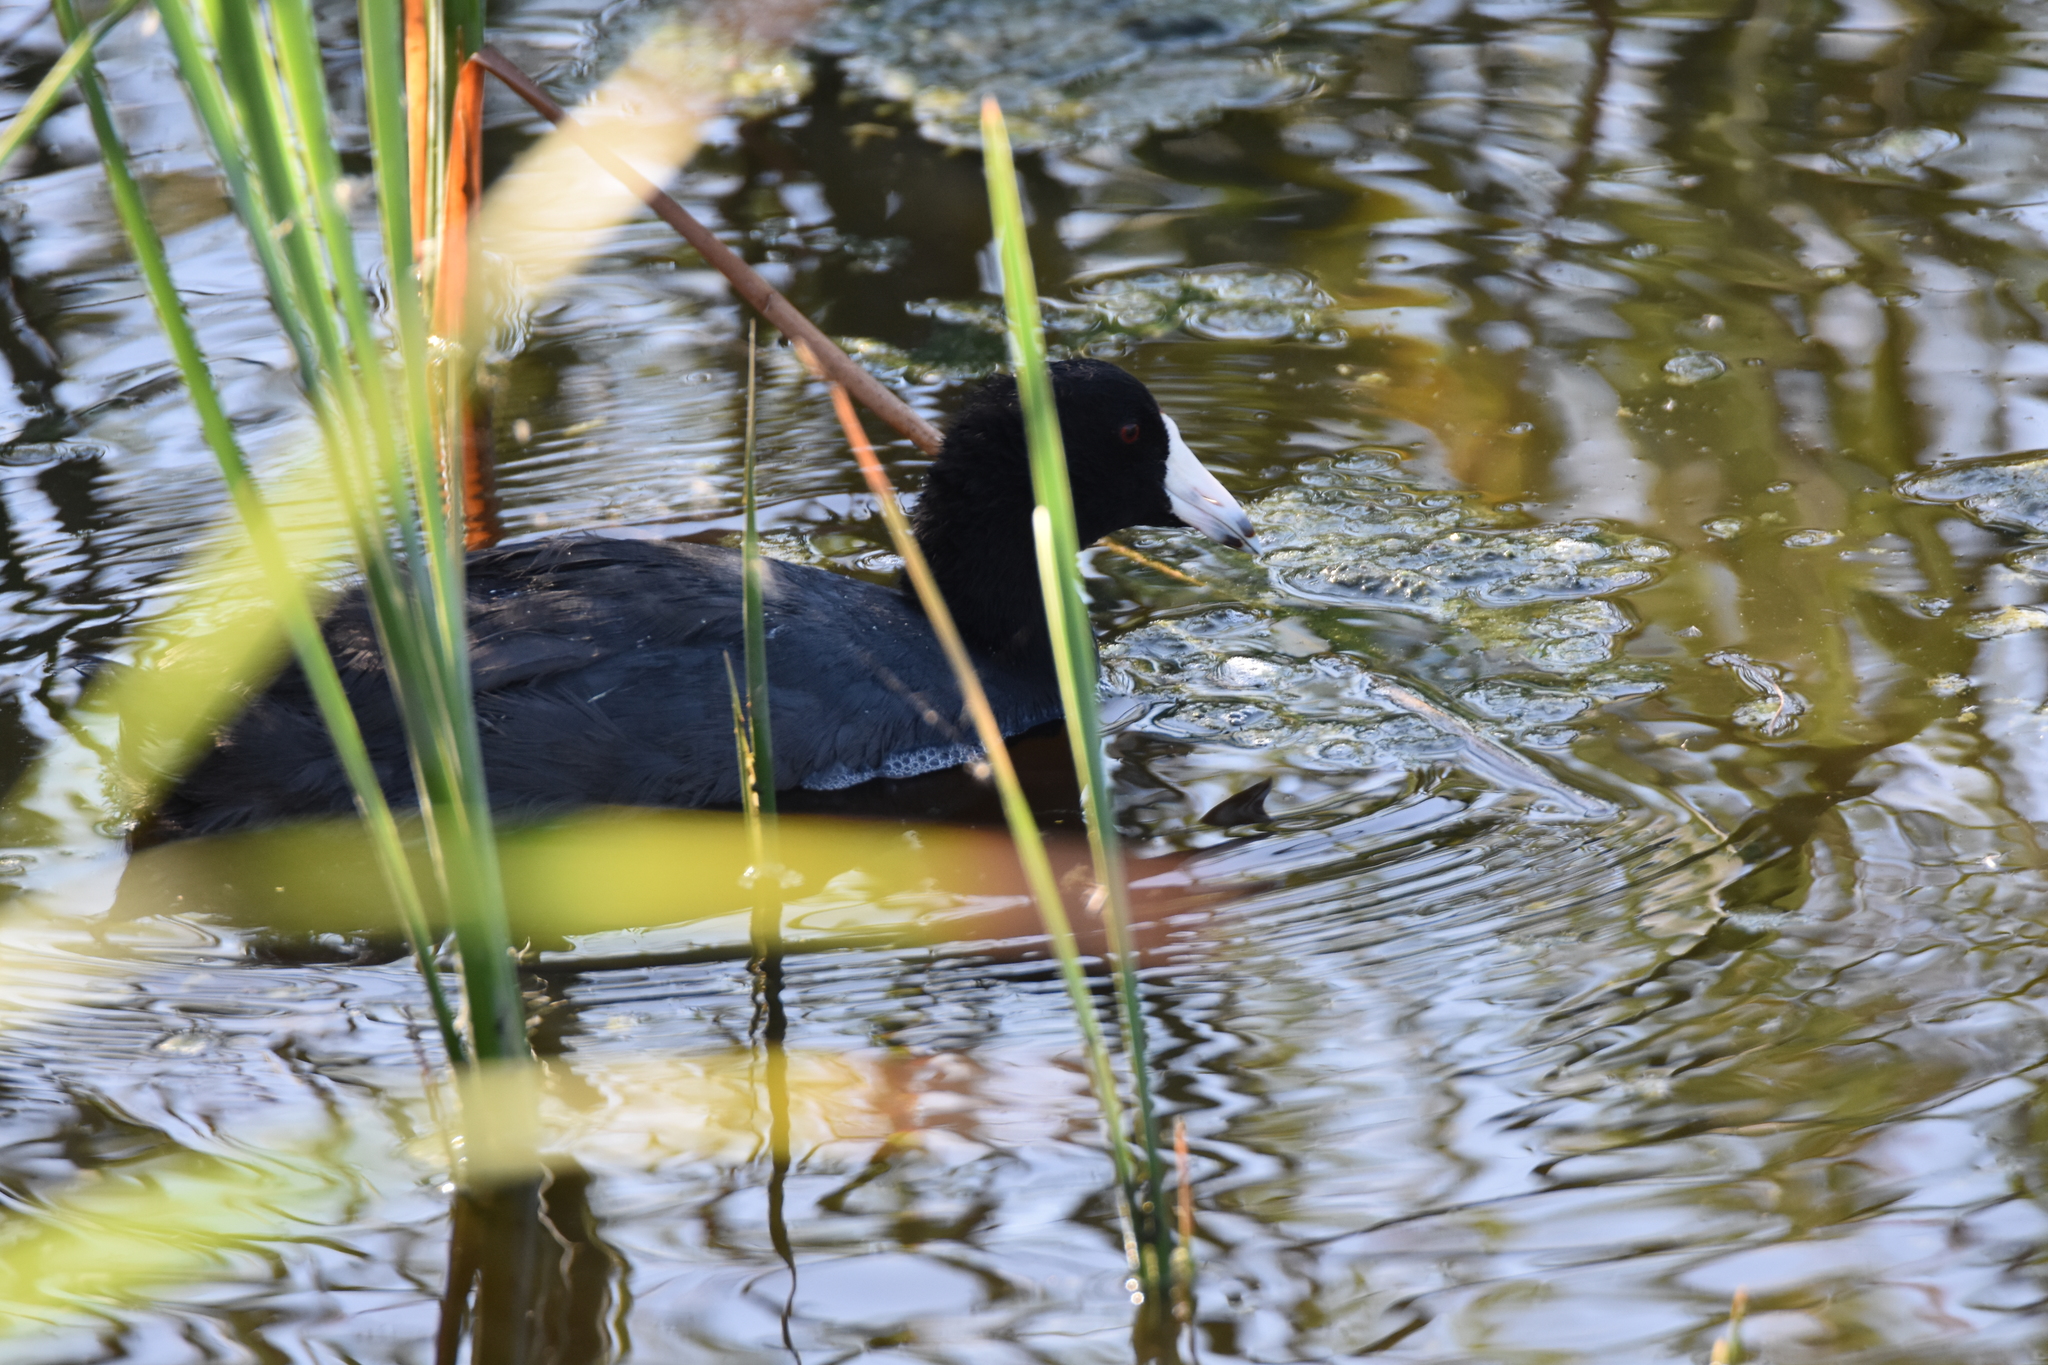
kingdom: Animalia
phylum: Chordata
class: Aves
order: Gruiformes
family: Rallidae
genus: Fulica
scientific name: Fulica americana
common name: American coot
